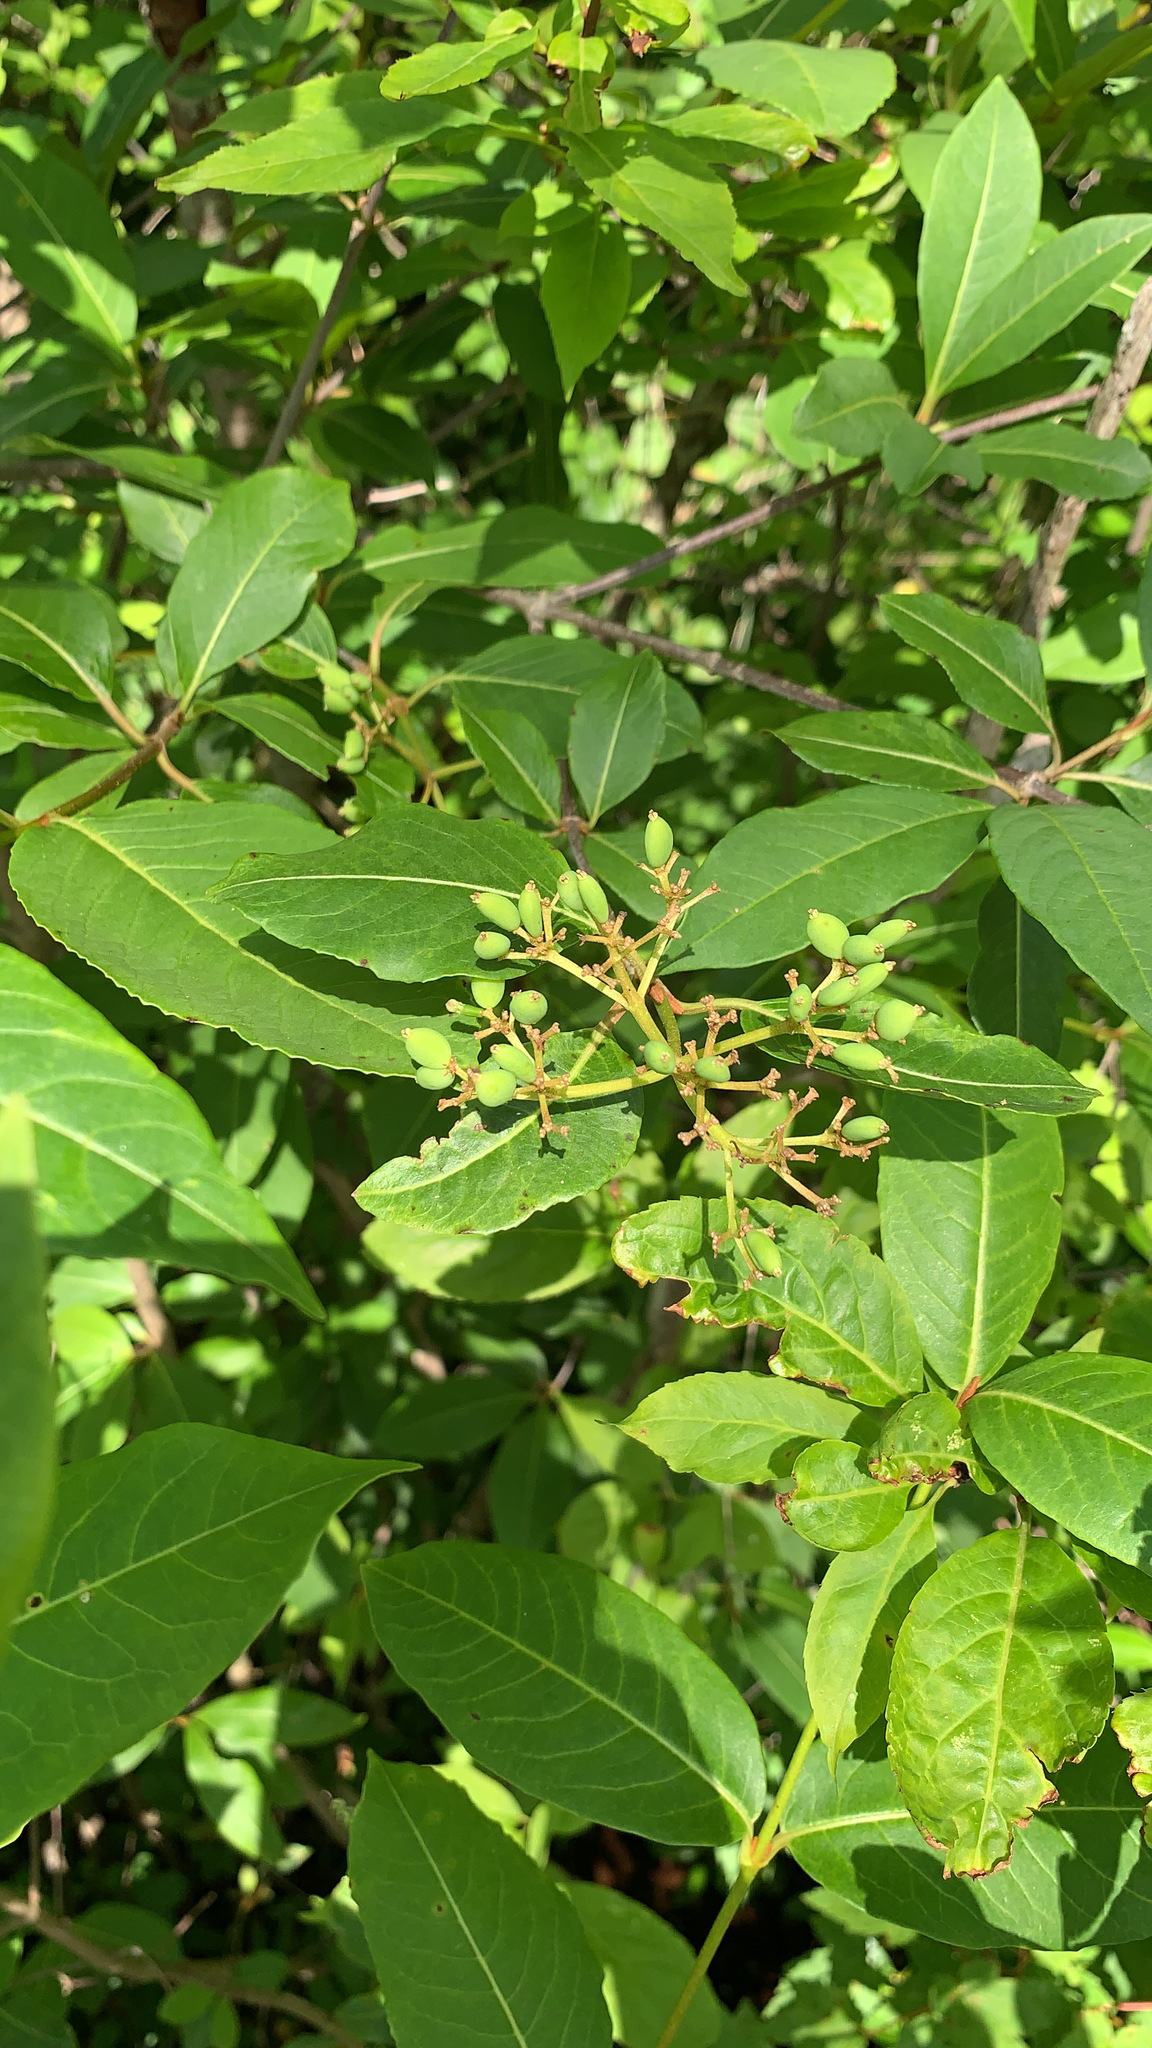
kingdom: Plantae
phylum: Tracheophyta
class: Magnoliopsida
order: Dipsacales
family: Viburnaceae
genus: Viburnum
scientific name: Viburnum cassinoides
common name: Swamp haw
